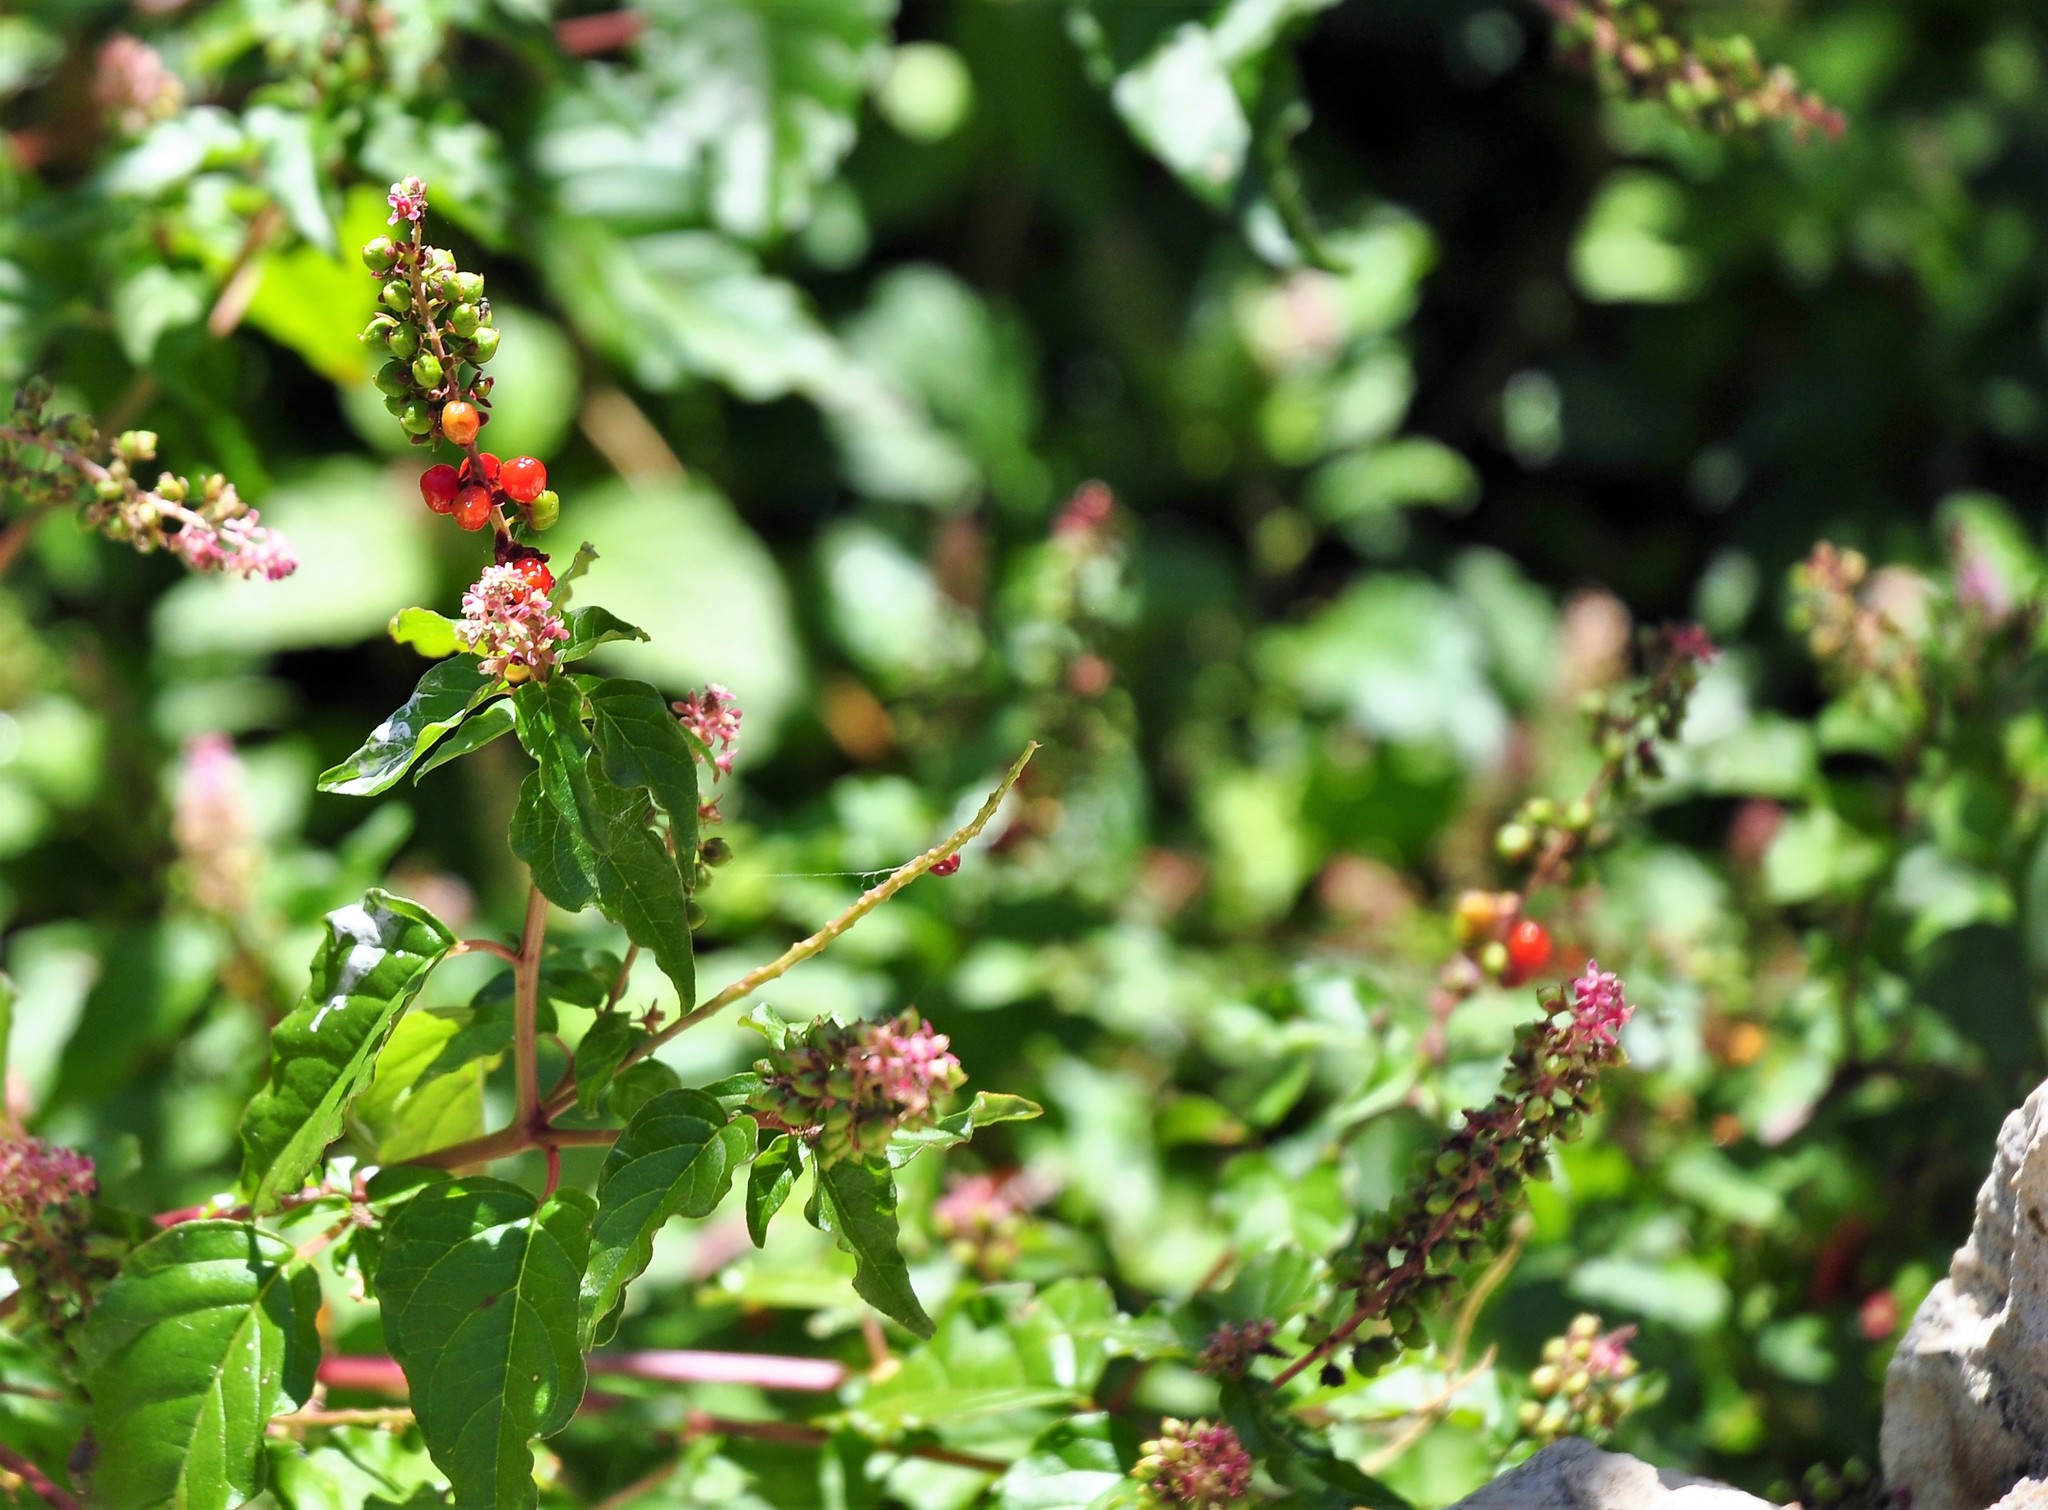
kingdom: Plantae
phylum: Tracheophyta
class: Magnoliopsida
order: Caryophyllales
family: Phytolaccaceae
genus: Rivina
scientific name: Rivina humilis
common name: Rougeplant
